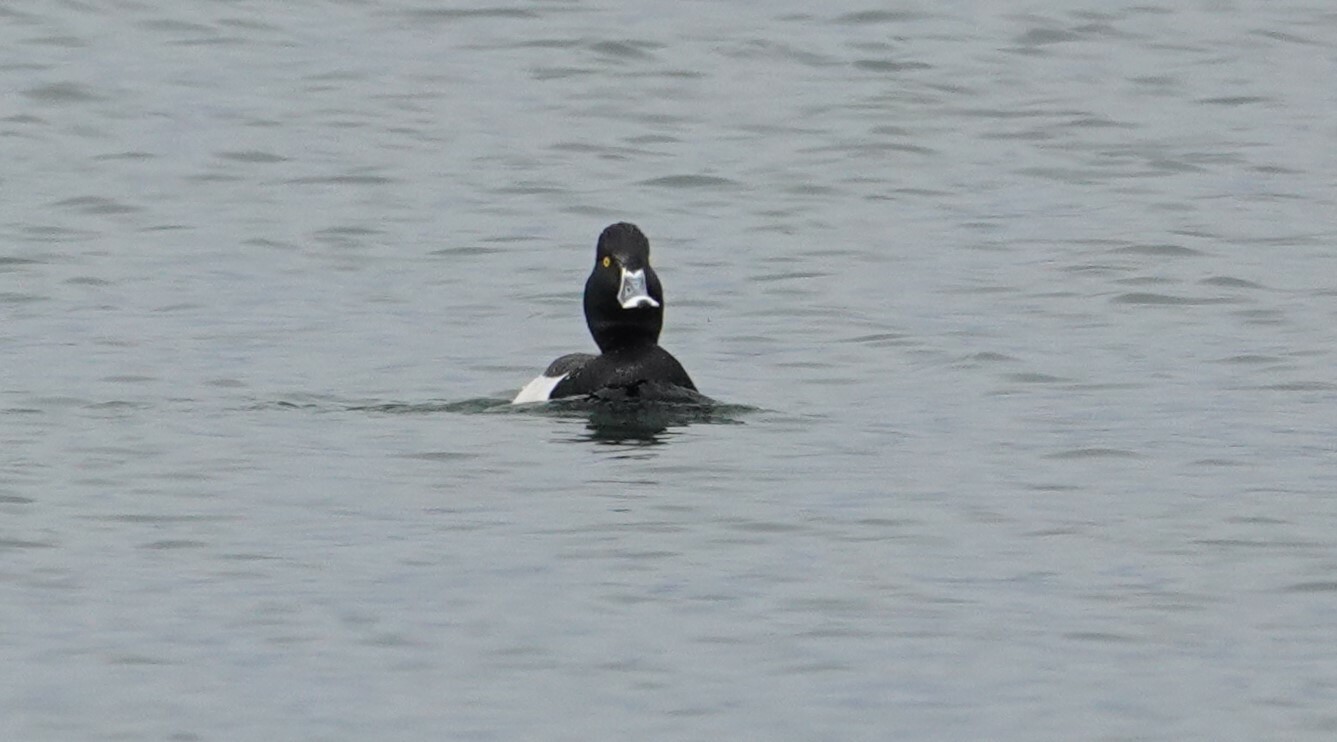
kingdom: Animalia
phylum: Chordata
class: Aves
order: Anseriformes
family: Anatidae
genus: Aythya
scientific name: Aythya
